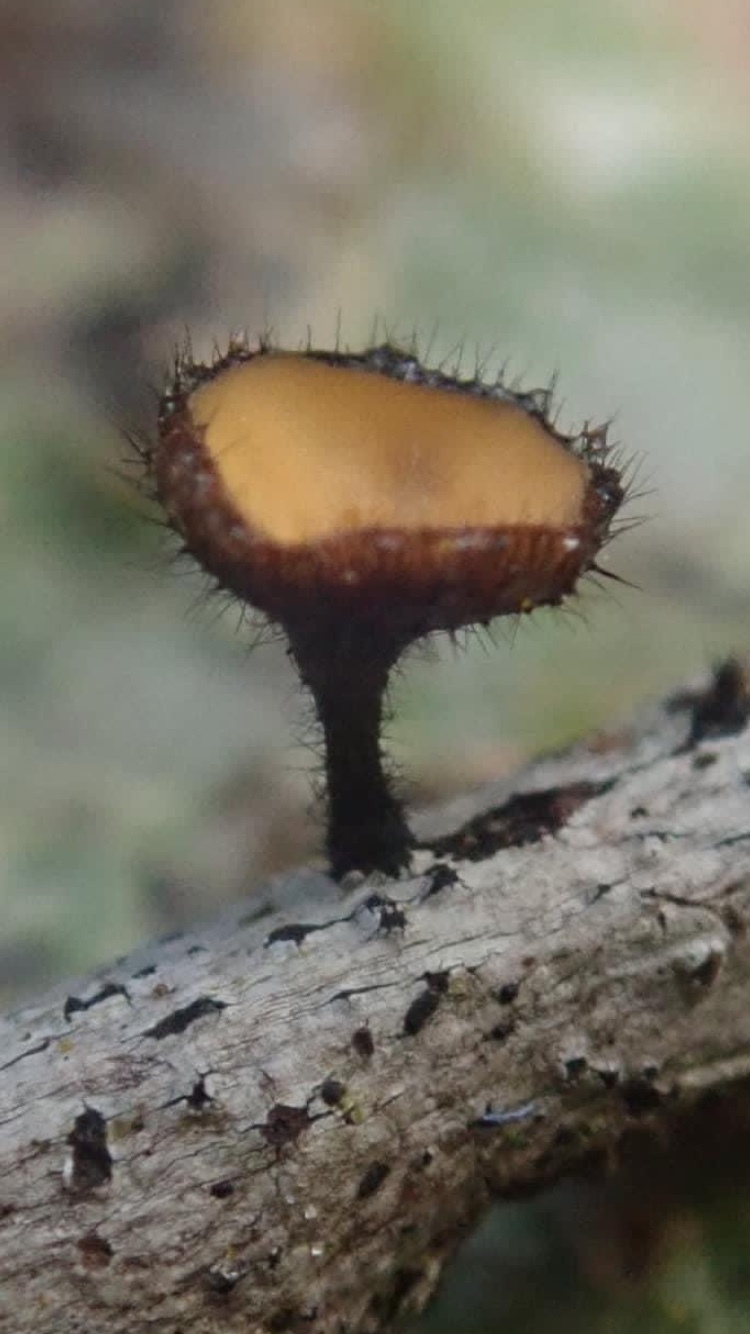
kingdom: Fungi
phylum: Ascomycota
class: Leotiomycetes
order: Helotiales
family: Helotiaceae
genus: Hymenotorrendiella
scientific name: Hymenotorrendiella clelandii
